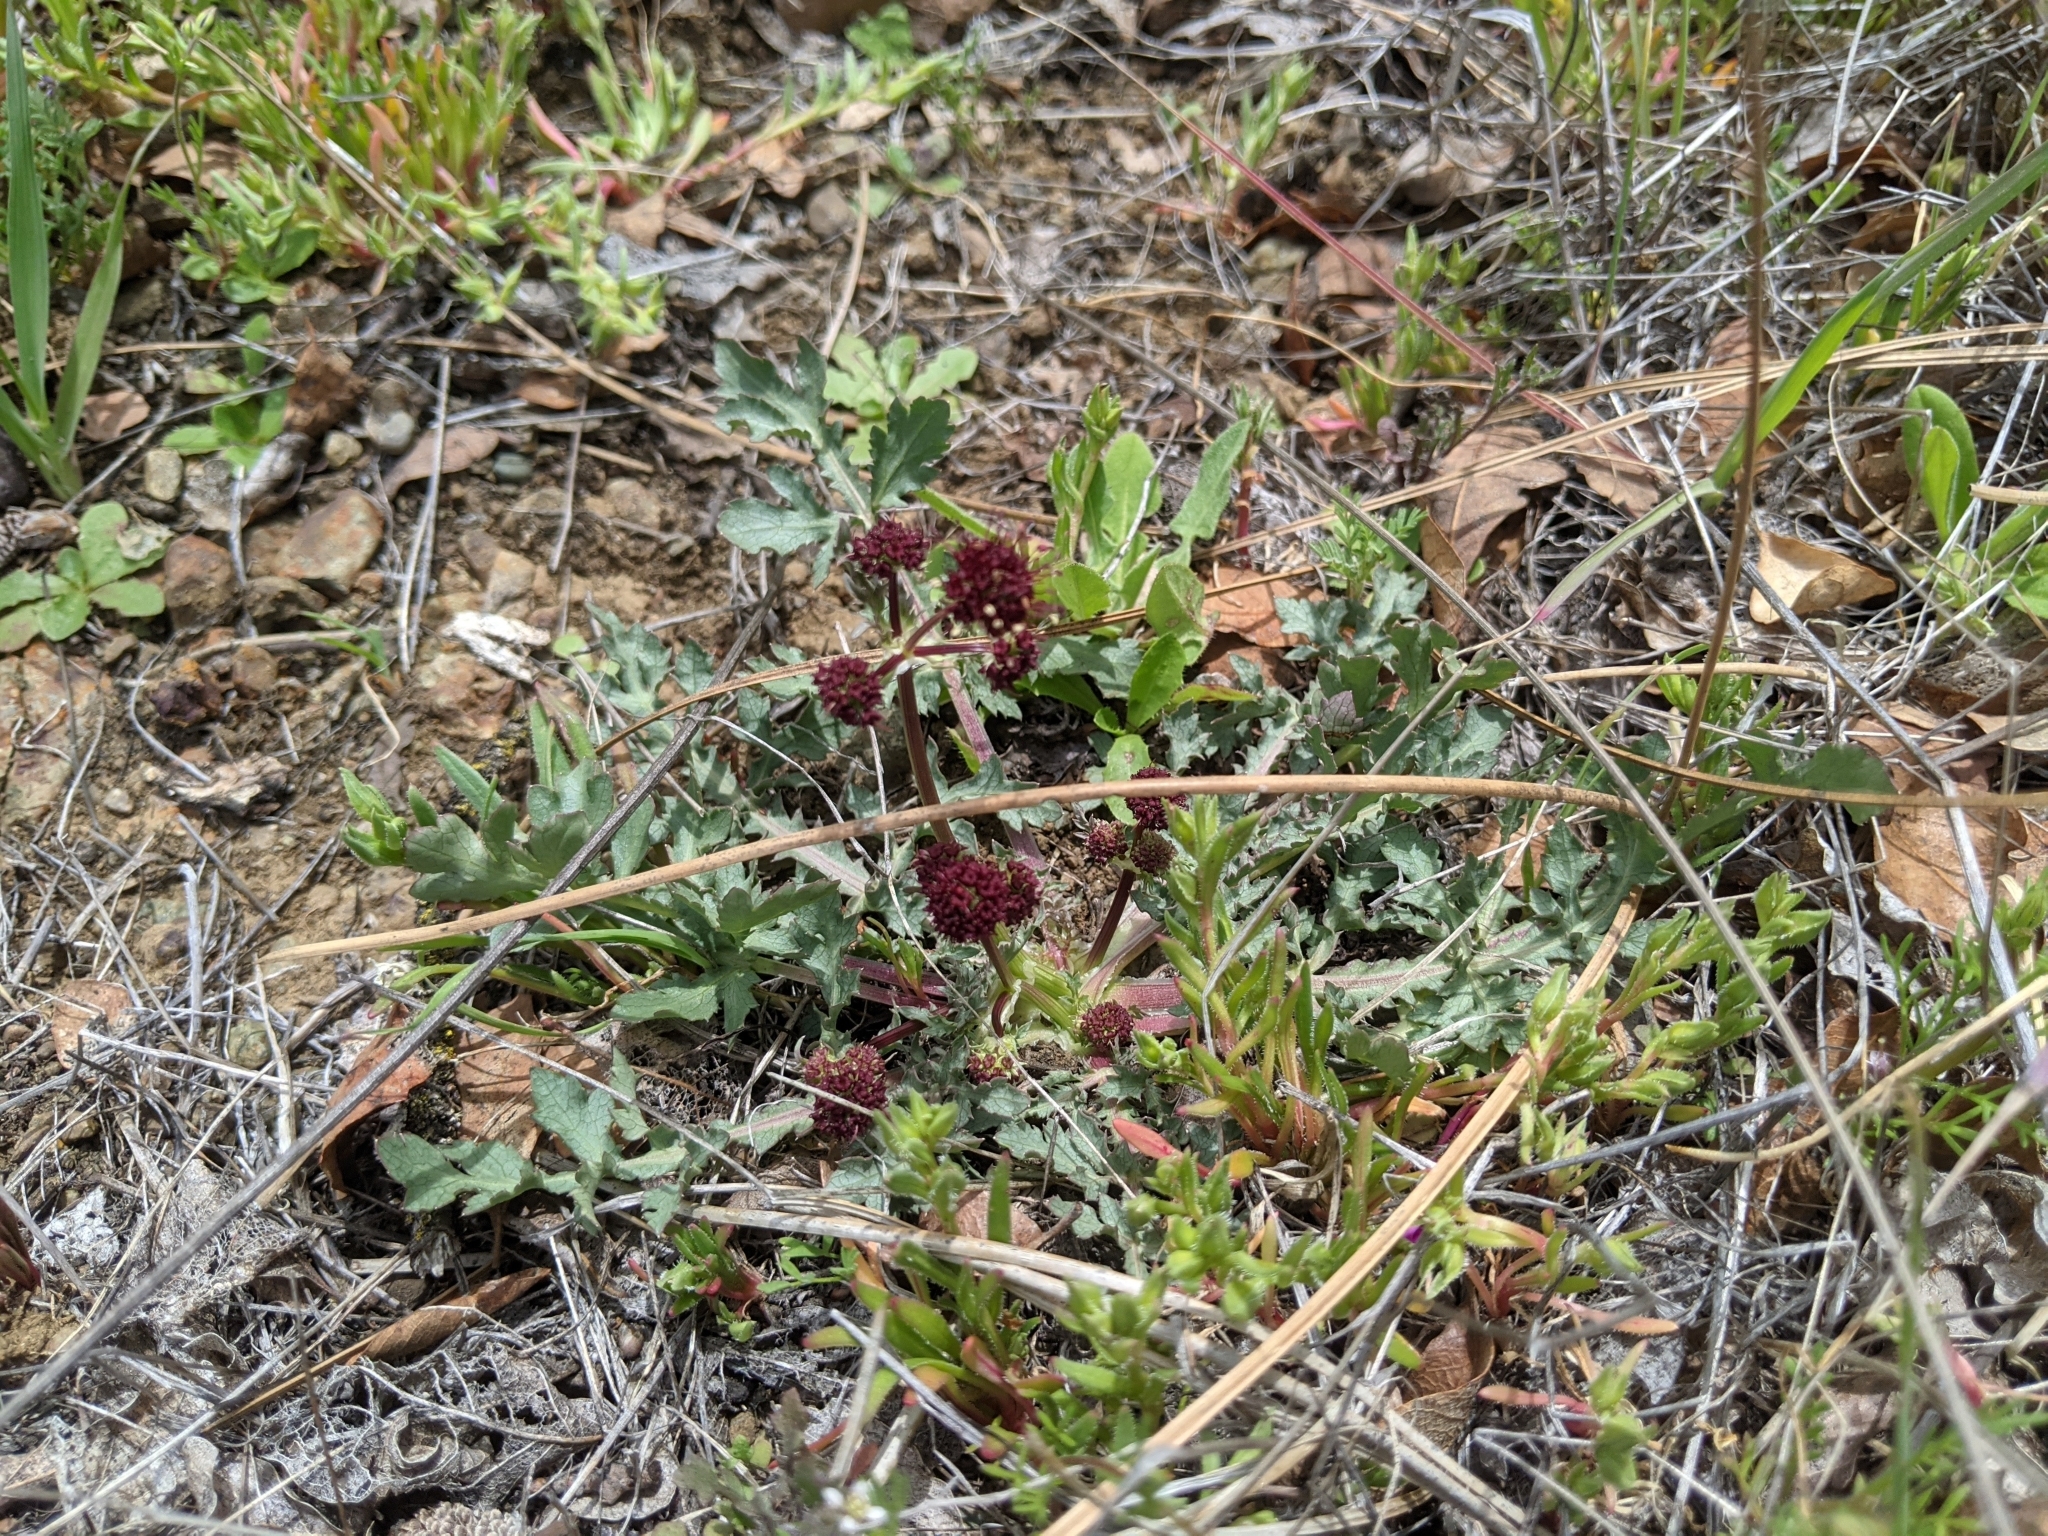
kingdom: Plantae
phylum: Tracheophyta
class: Magnoliopsida
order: Apiales
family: Apiaceae
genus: Sanicula
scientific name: Sanicula bipinnatifida
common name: Shoe-buttons
